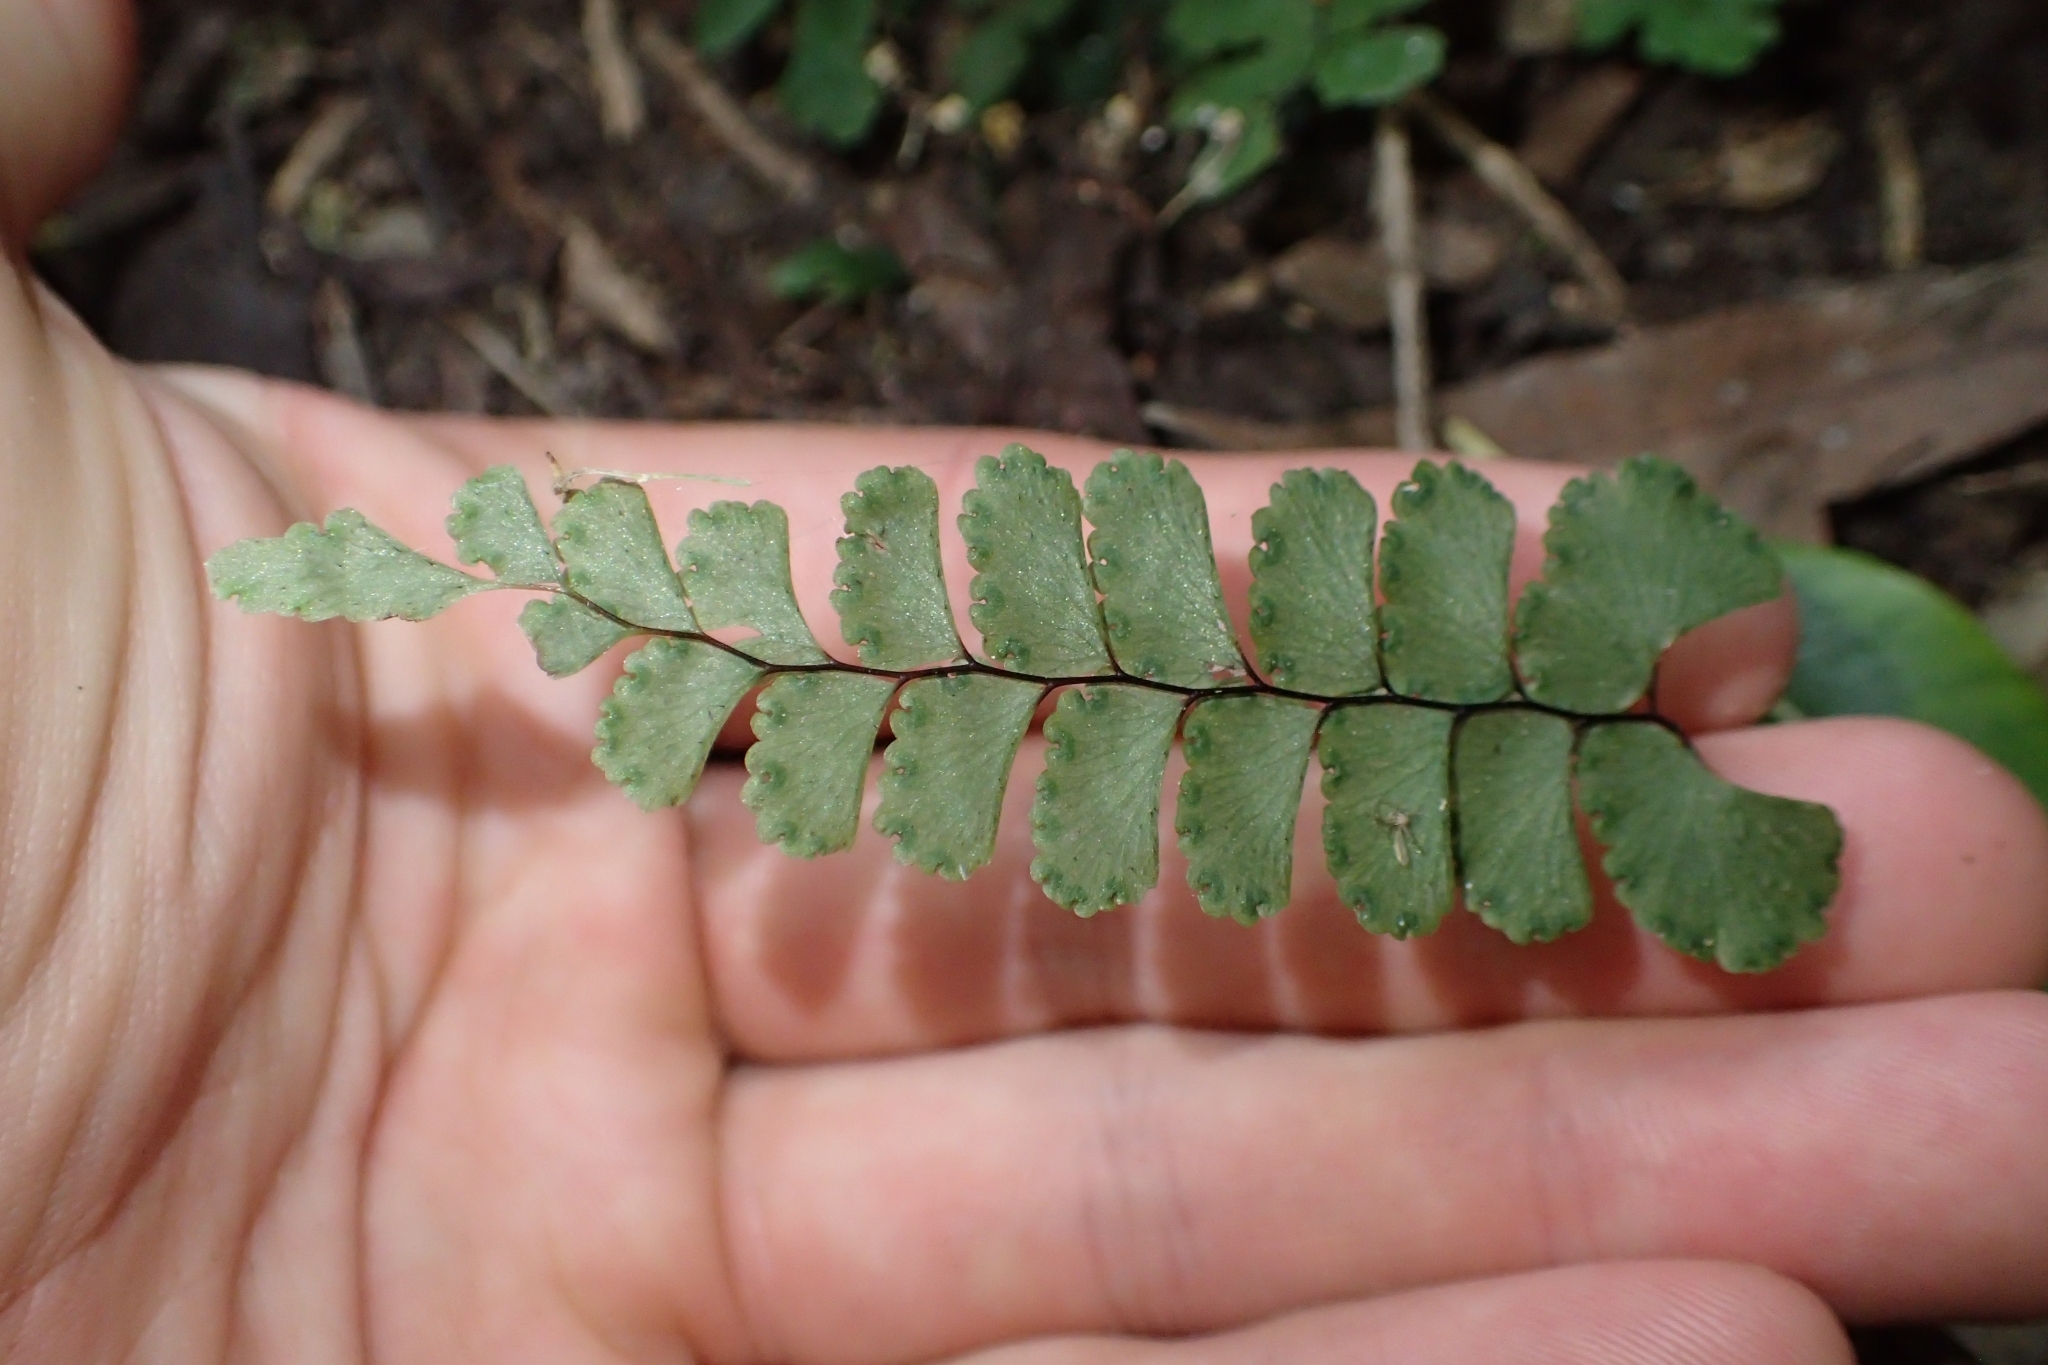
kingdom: Plantae
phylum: Tracheophyta
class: Polypodiopsida
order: Polypodiales
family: Pteridaceae
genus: Adiantum
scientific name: Adiantum diaphanum
